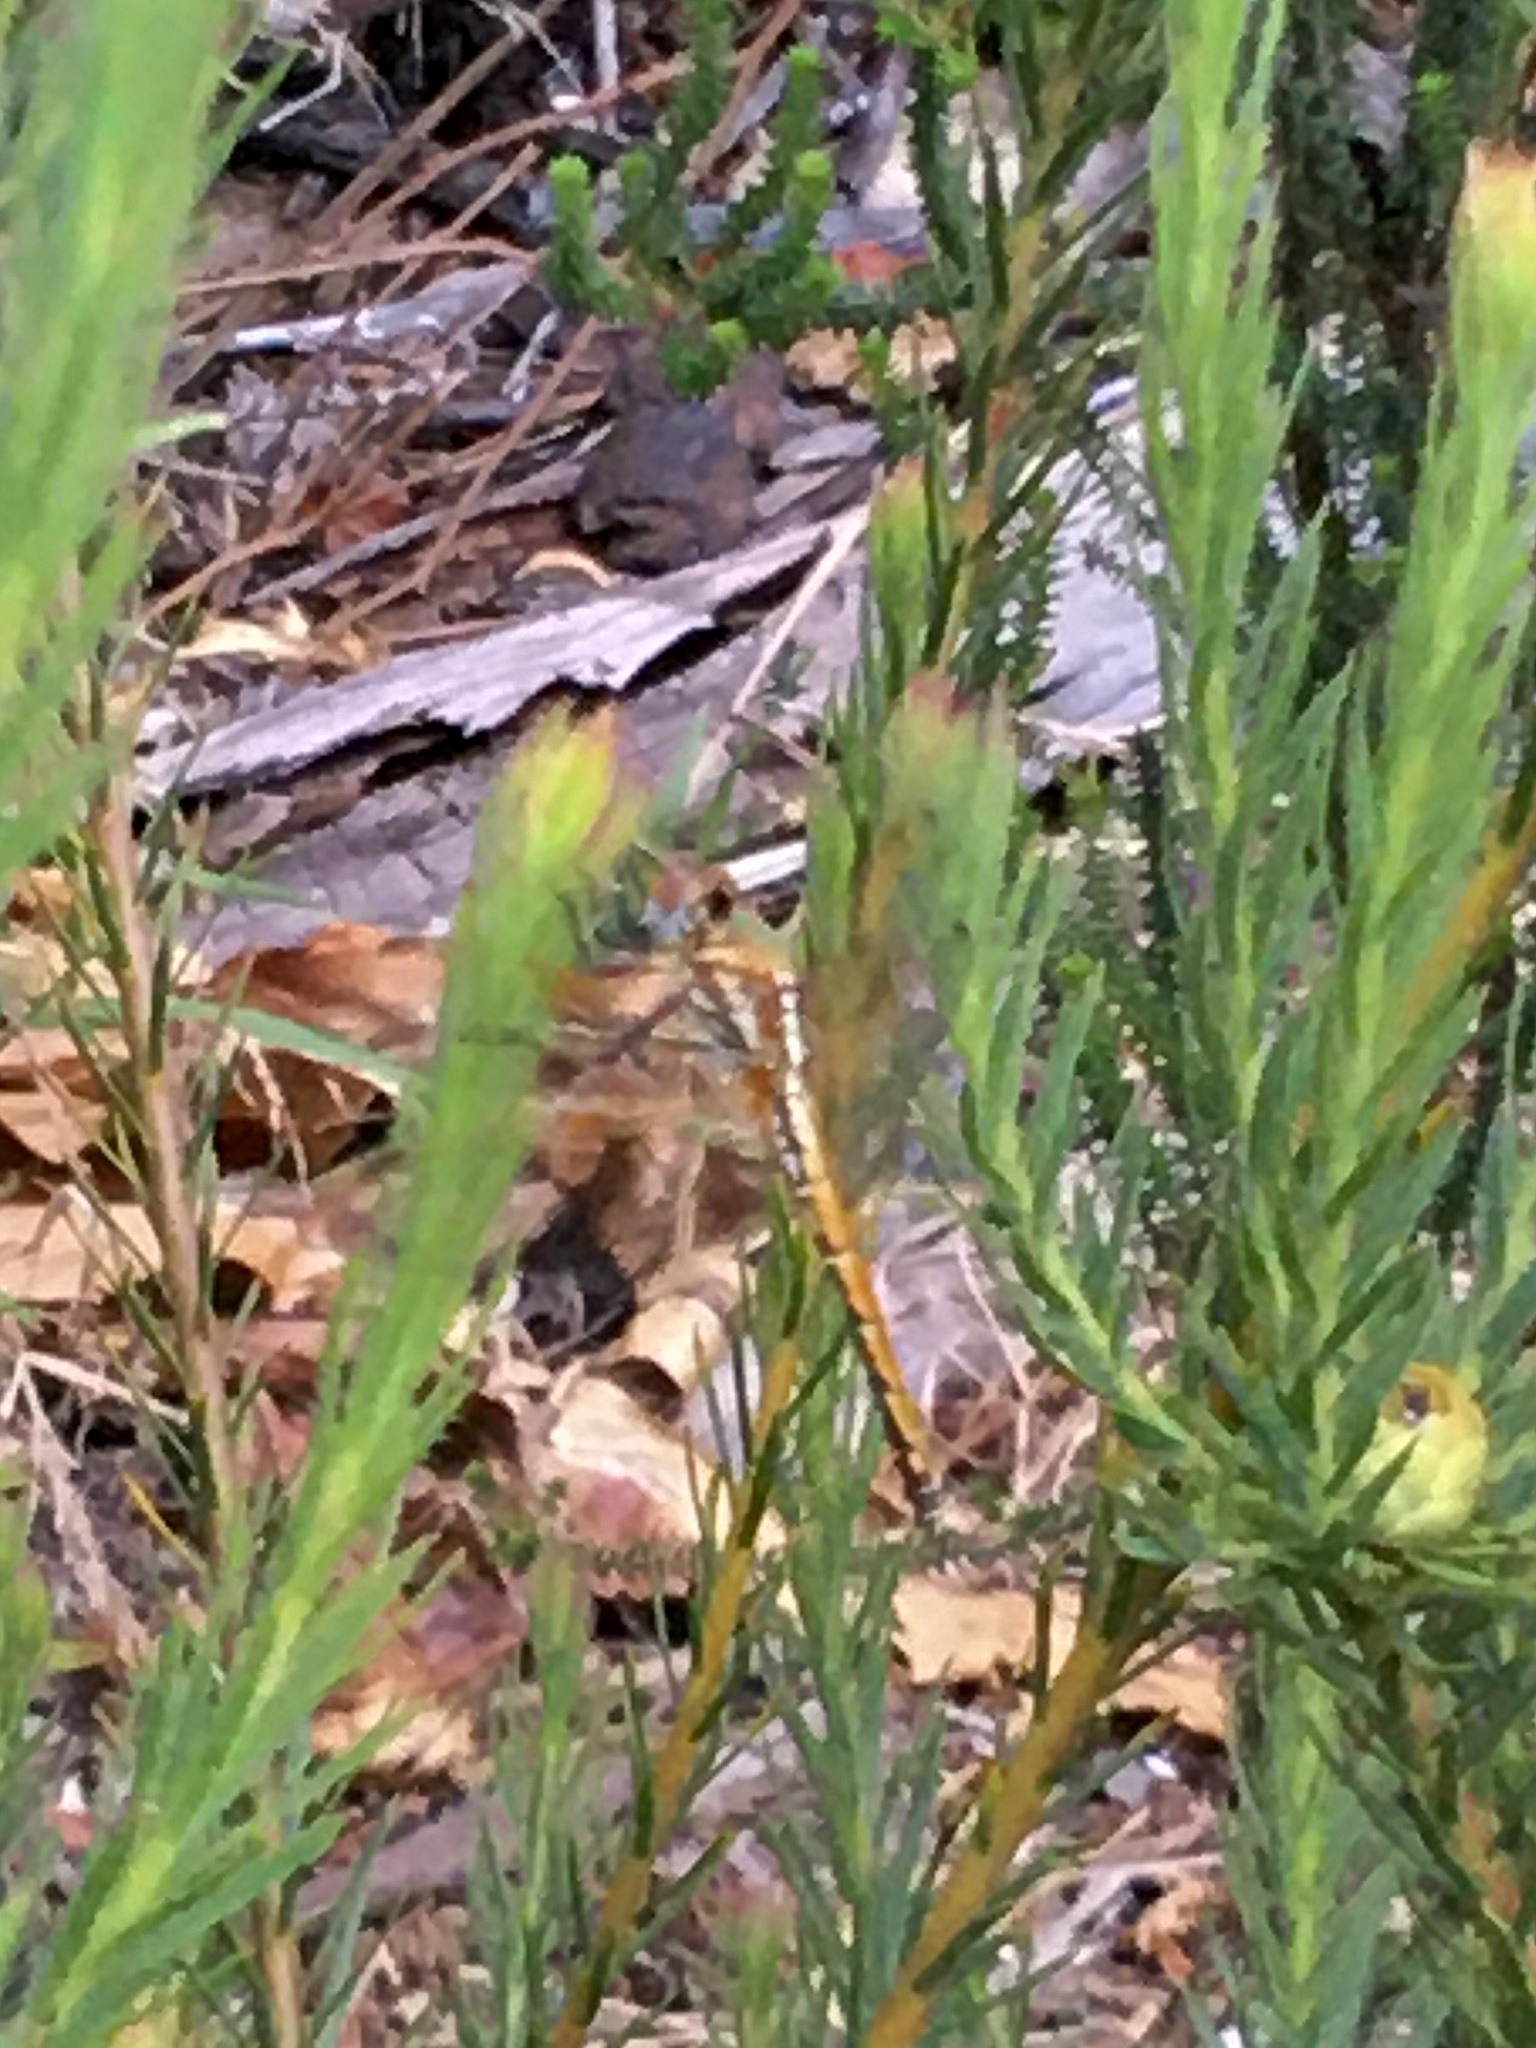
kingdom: Animalia
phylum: Arthropoda
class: Insecta
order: Odonata
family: Libellulidae
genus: Trithemis
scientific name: Trithemis arteriosa
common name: Red-veined dropwing
